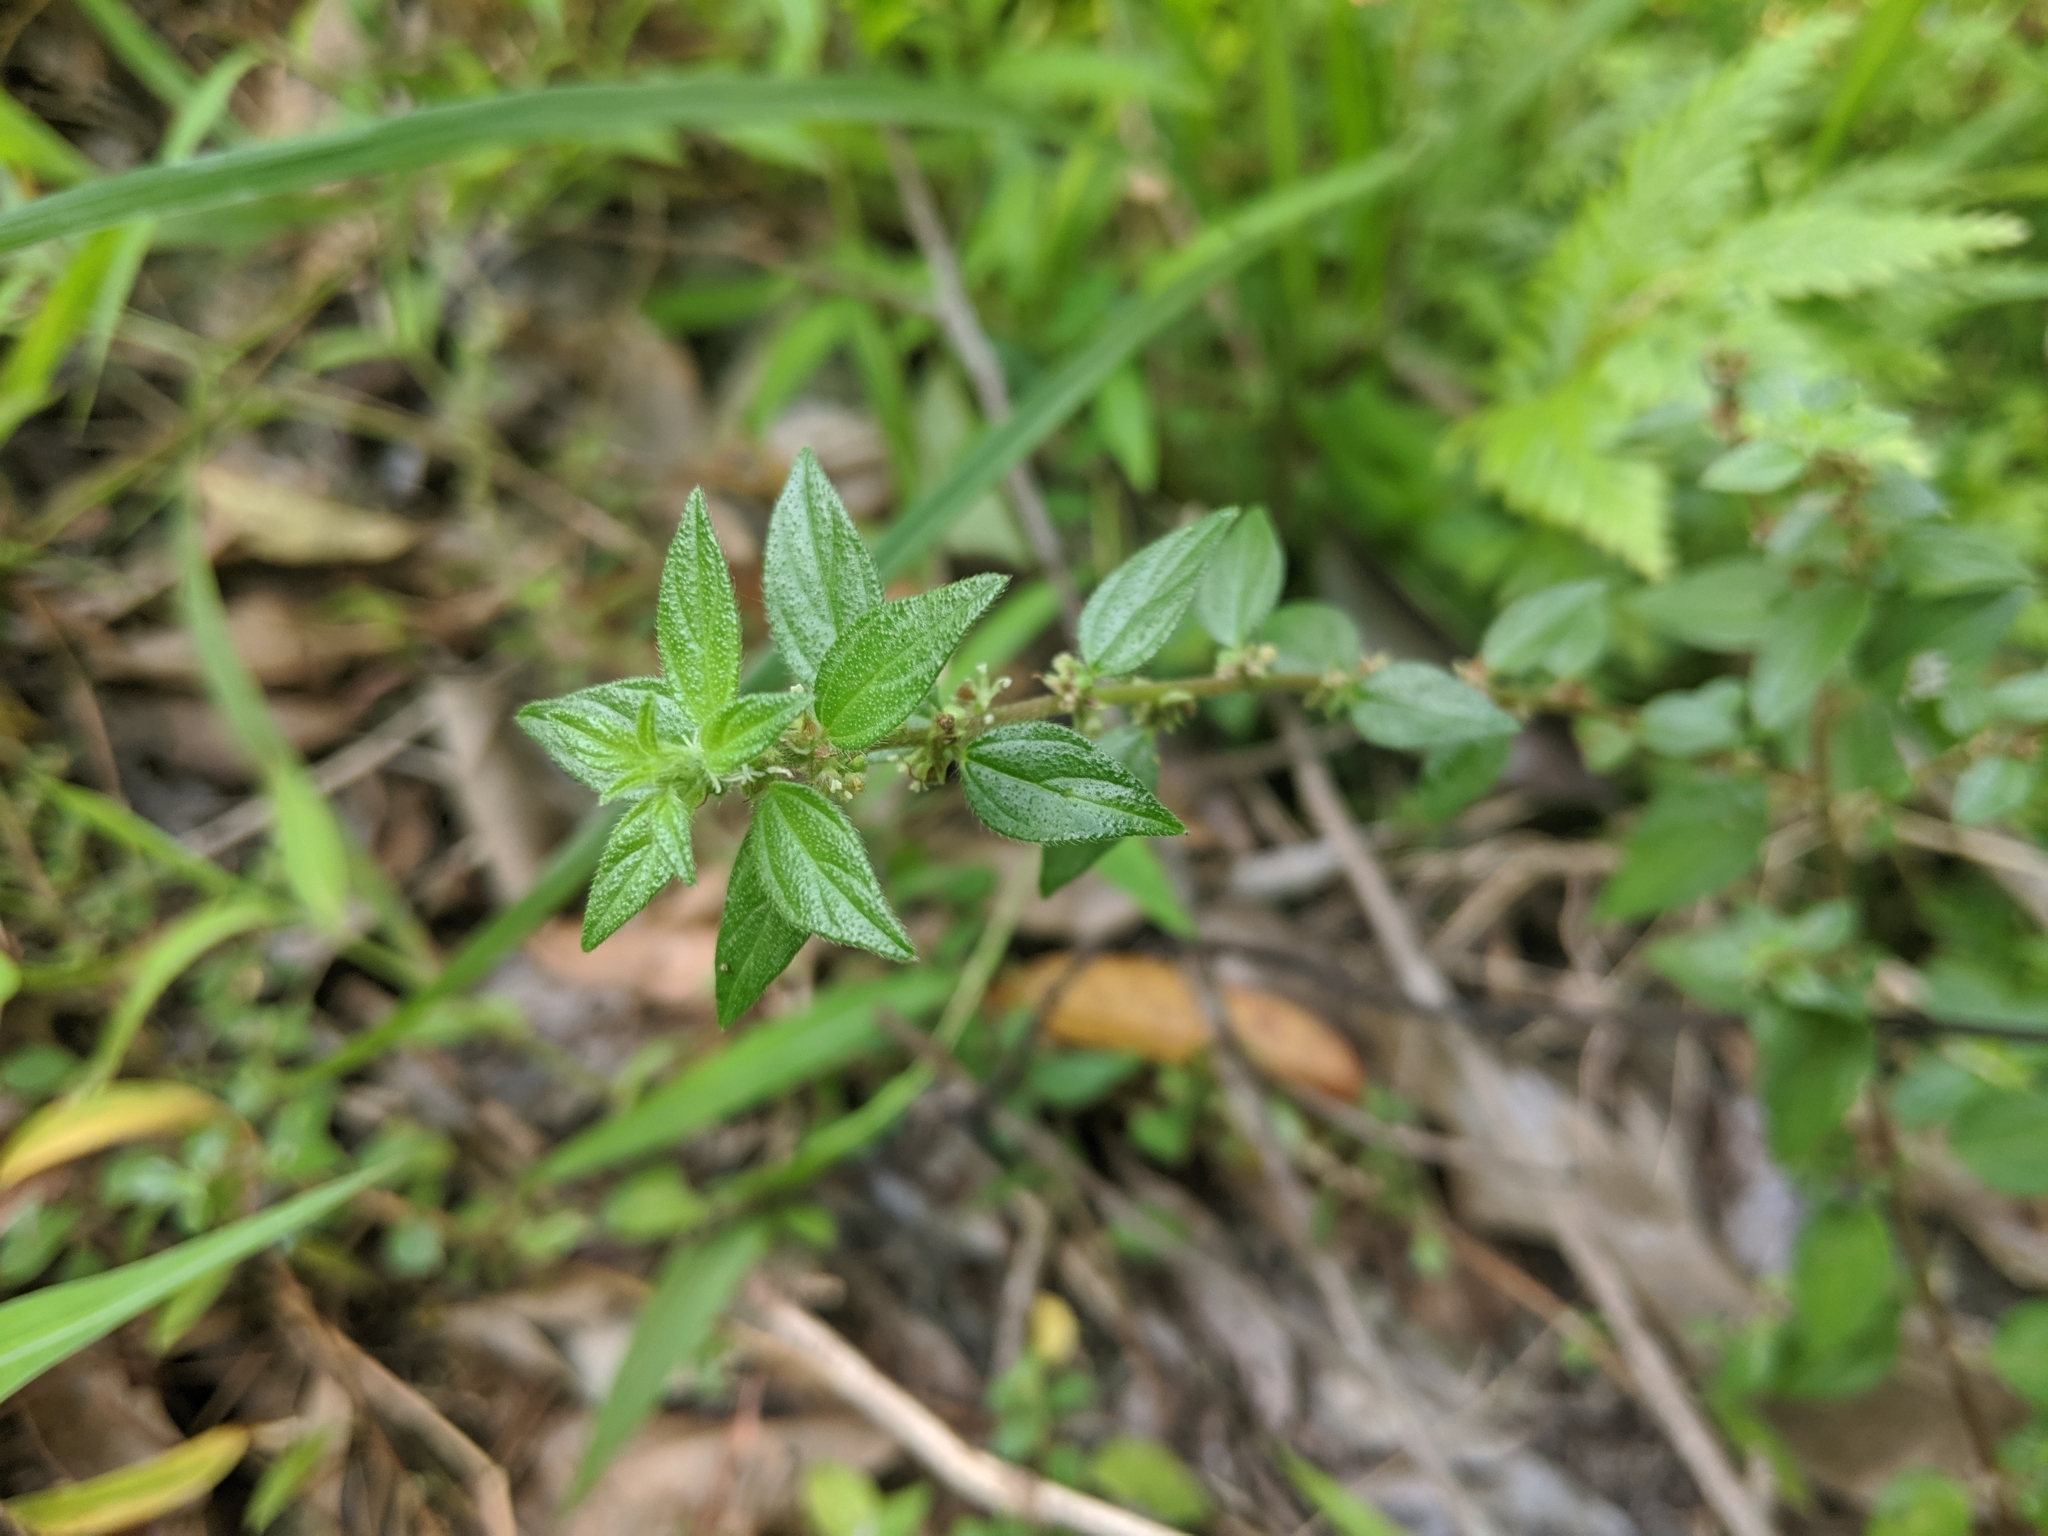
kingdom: Plantae
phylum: Tracheophyta
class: Magnoliopsida
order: Rosales
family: Urticaceae
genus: Pouzolzia
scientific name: Pouzolzia zeylanica
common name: Graceful pouzolzsbush
